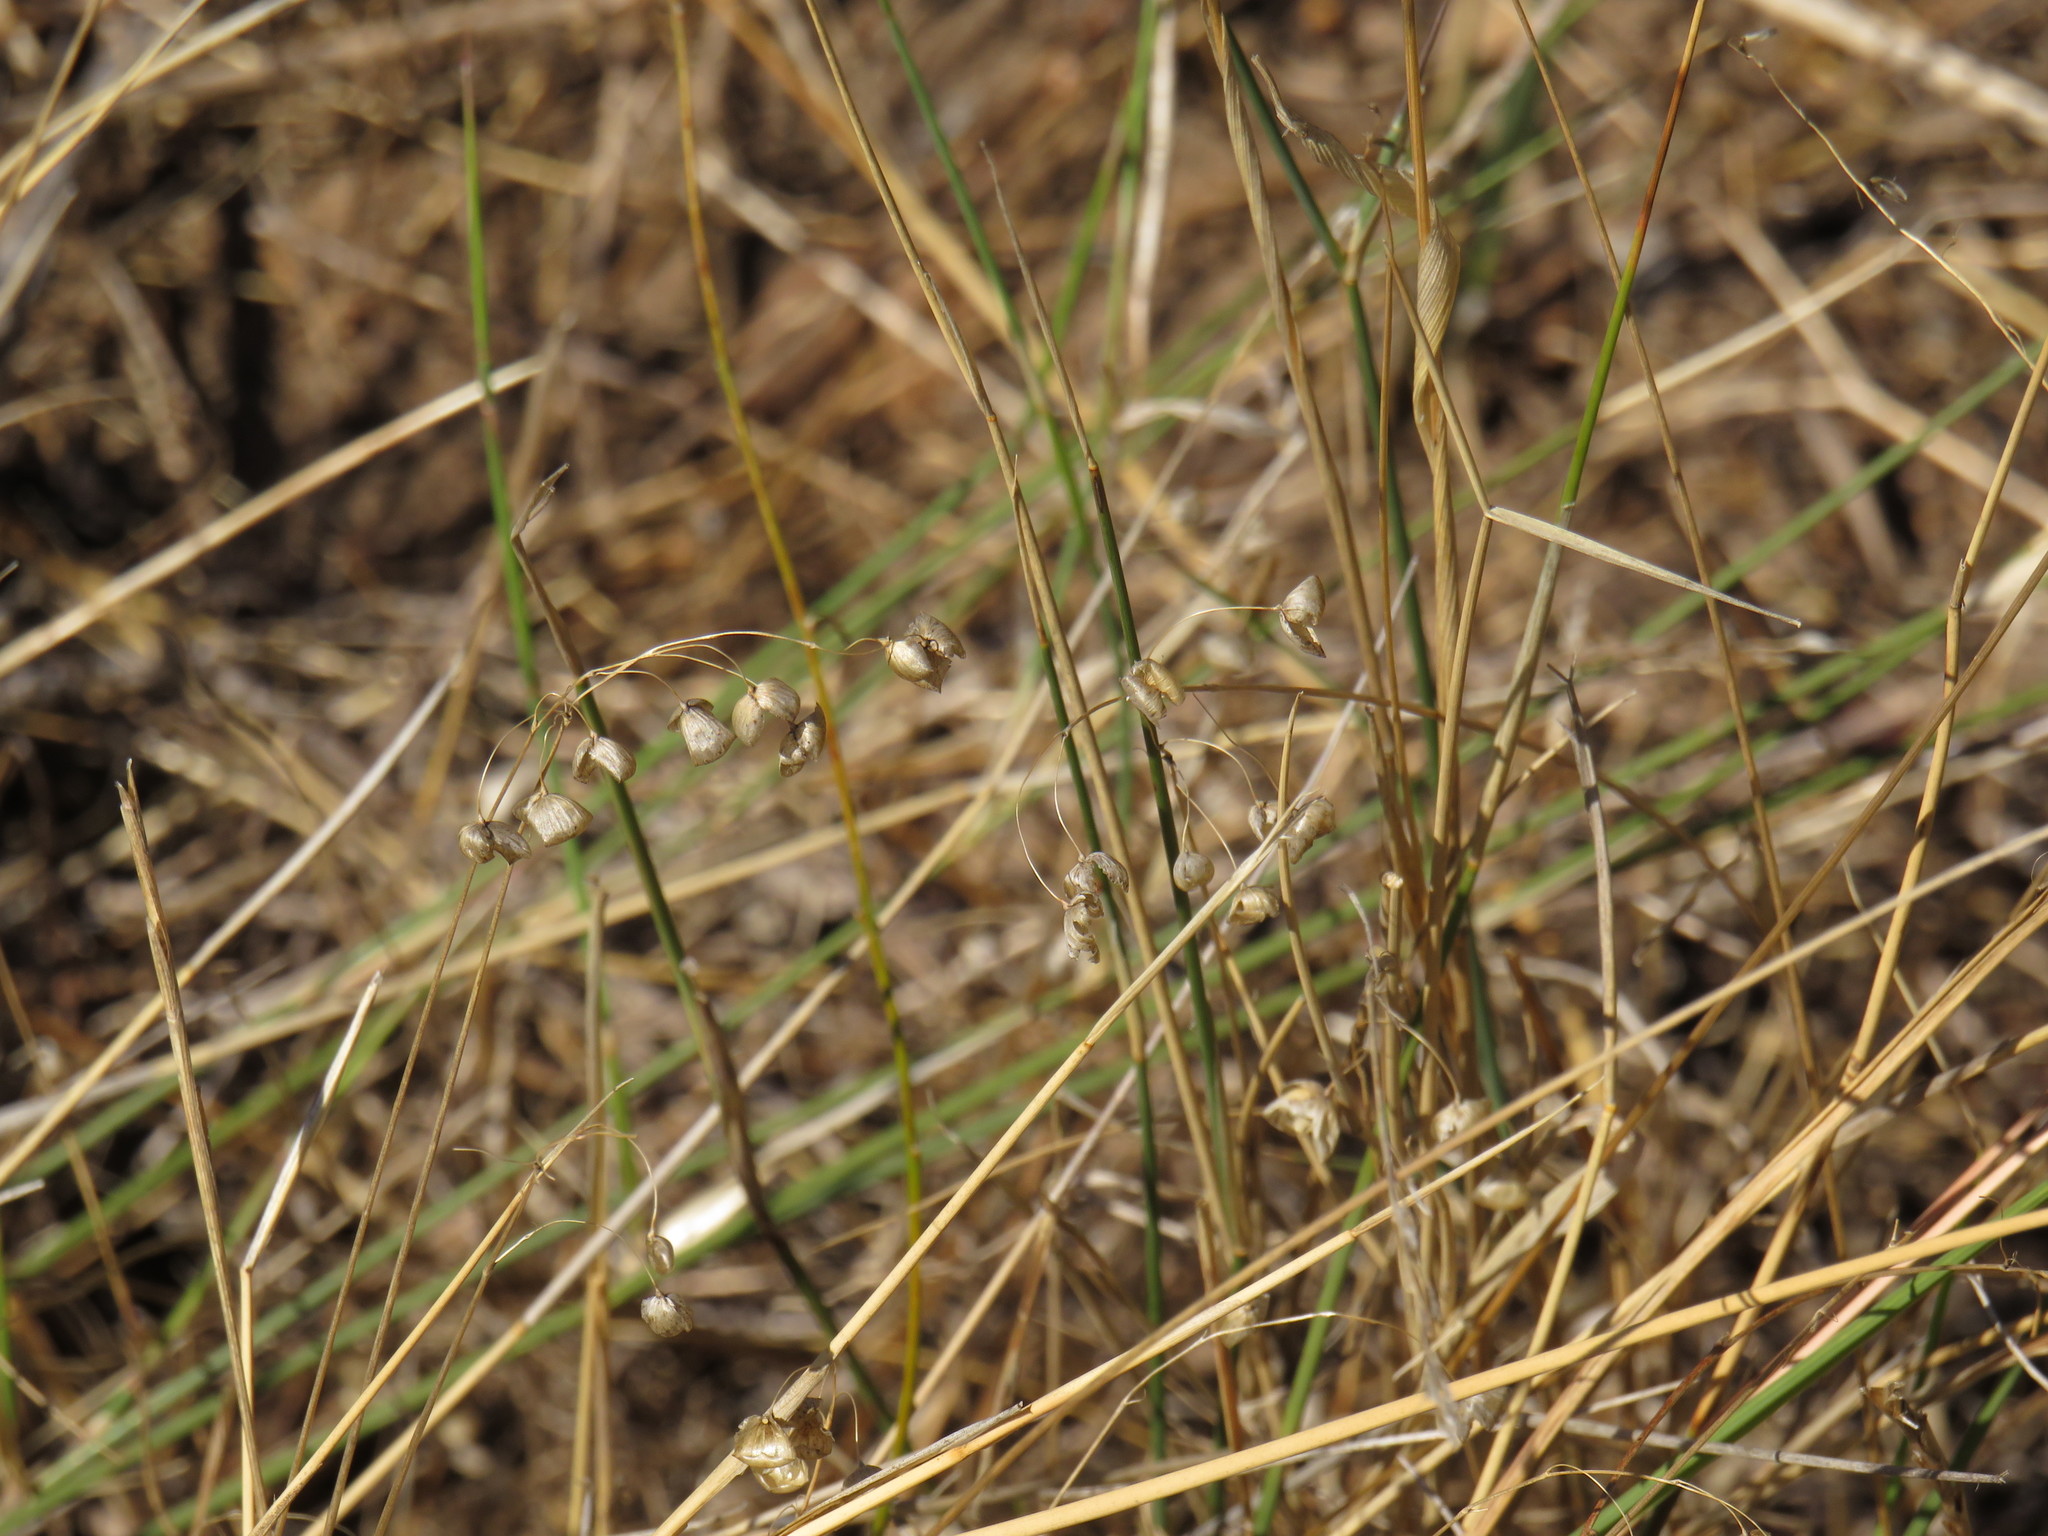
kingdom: Plantae
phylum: Tracheophyta
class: Liliopsida
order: Poales
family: Poaceae
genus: Briza
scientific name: Briza maxima
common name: Big quakinggrass
